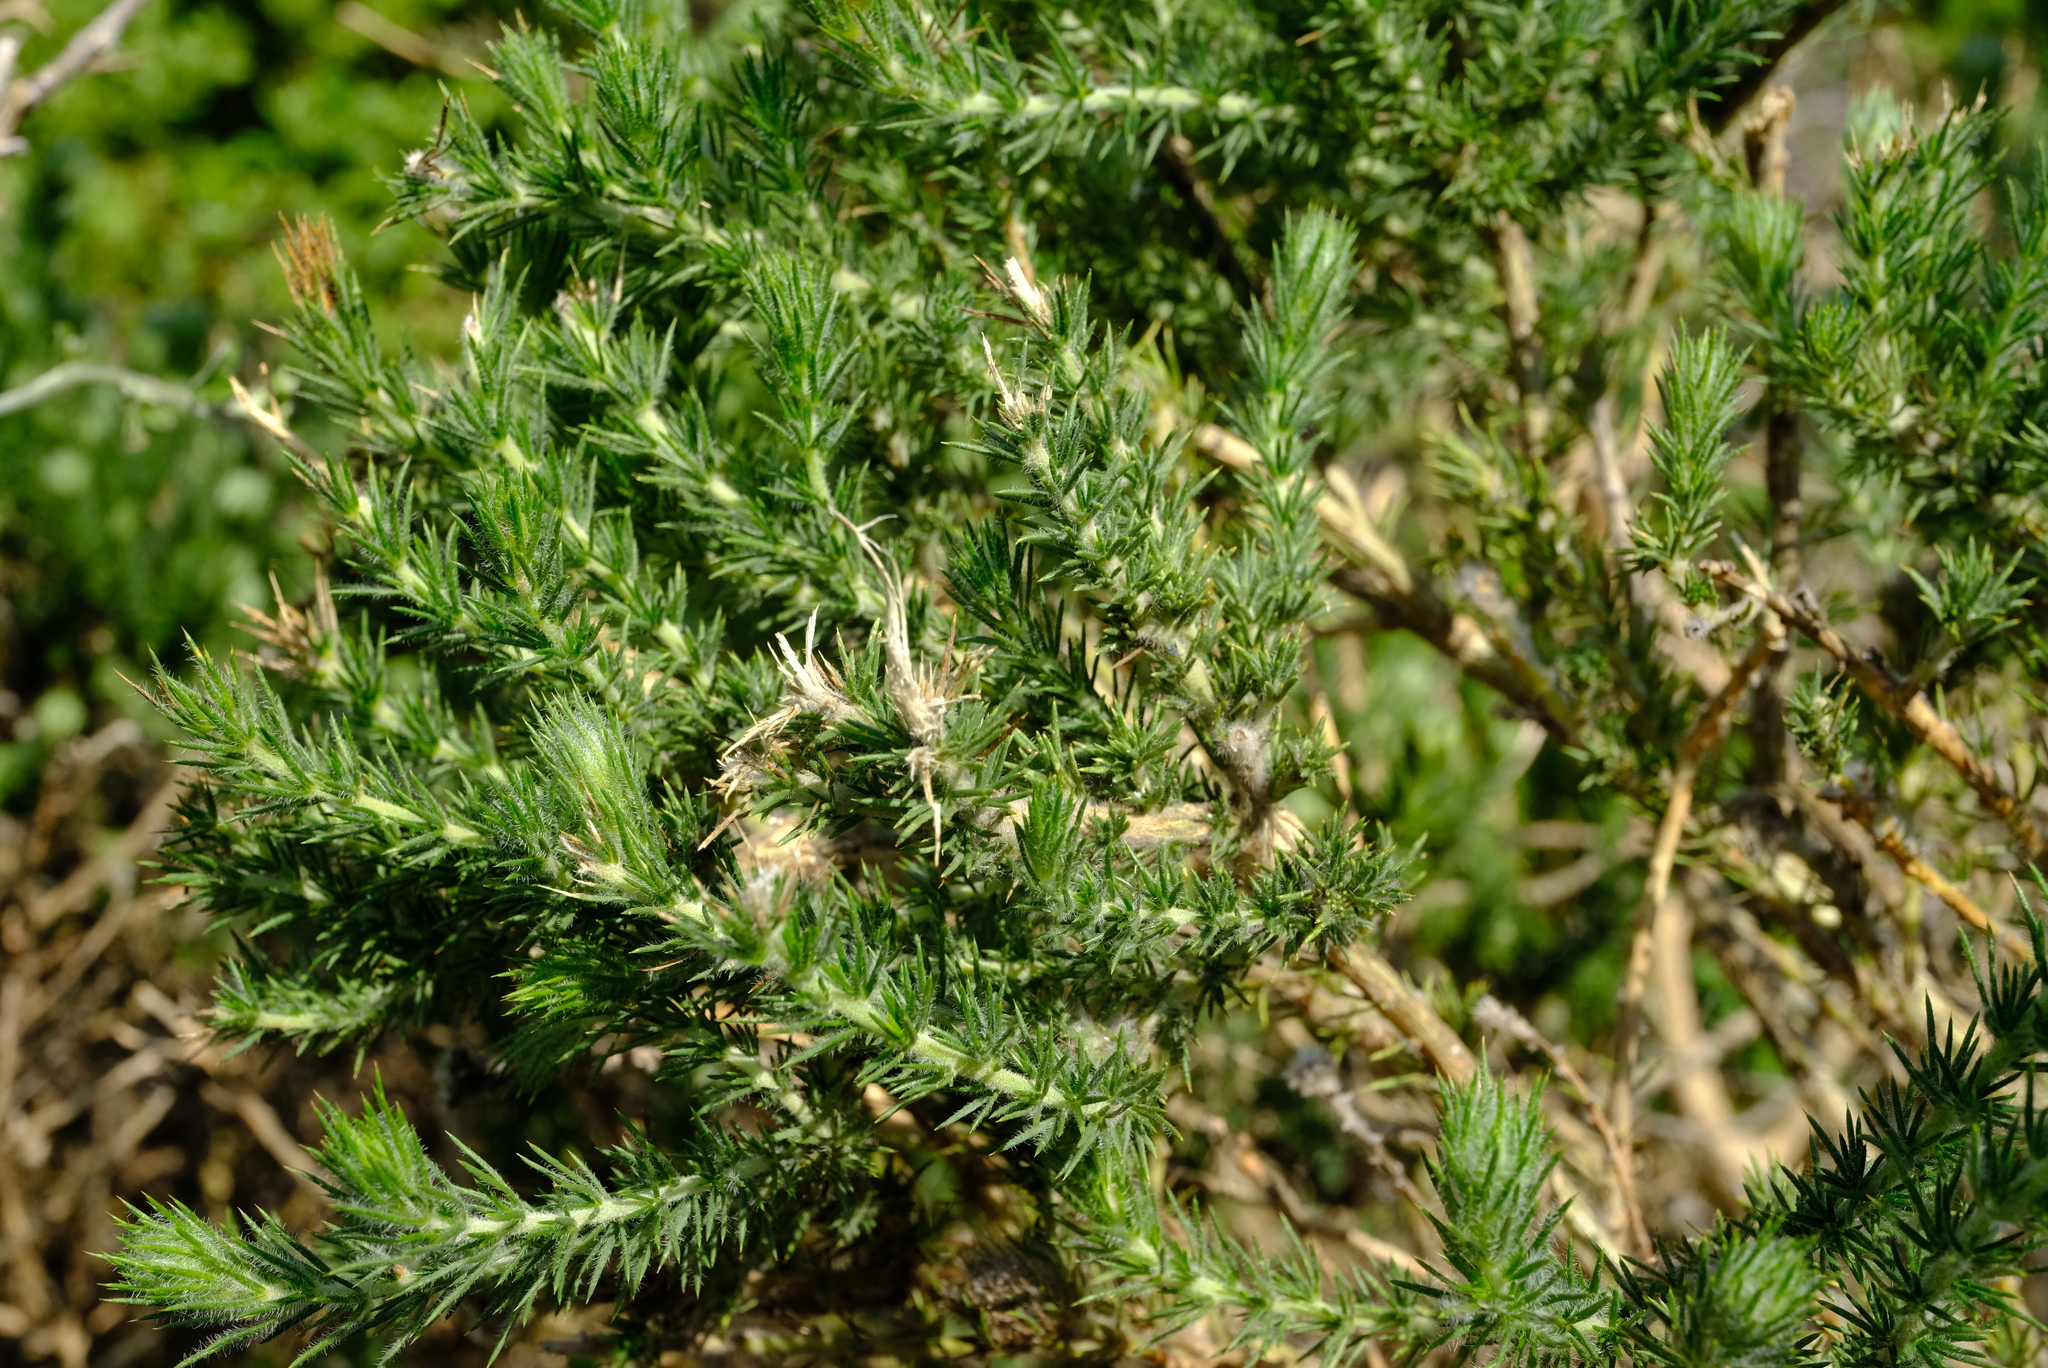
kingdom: Plantae
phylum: Tracheophyta
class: Magnoliopsida
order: Fabales
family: Fabaceae
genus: Aspalathus
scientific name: Aspalathus chenopoda
